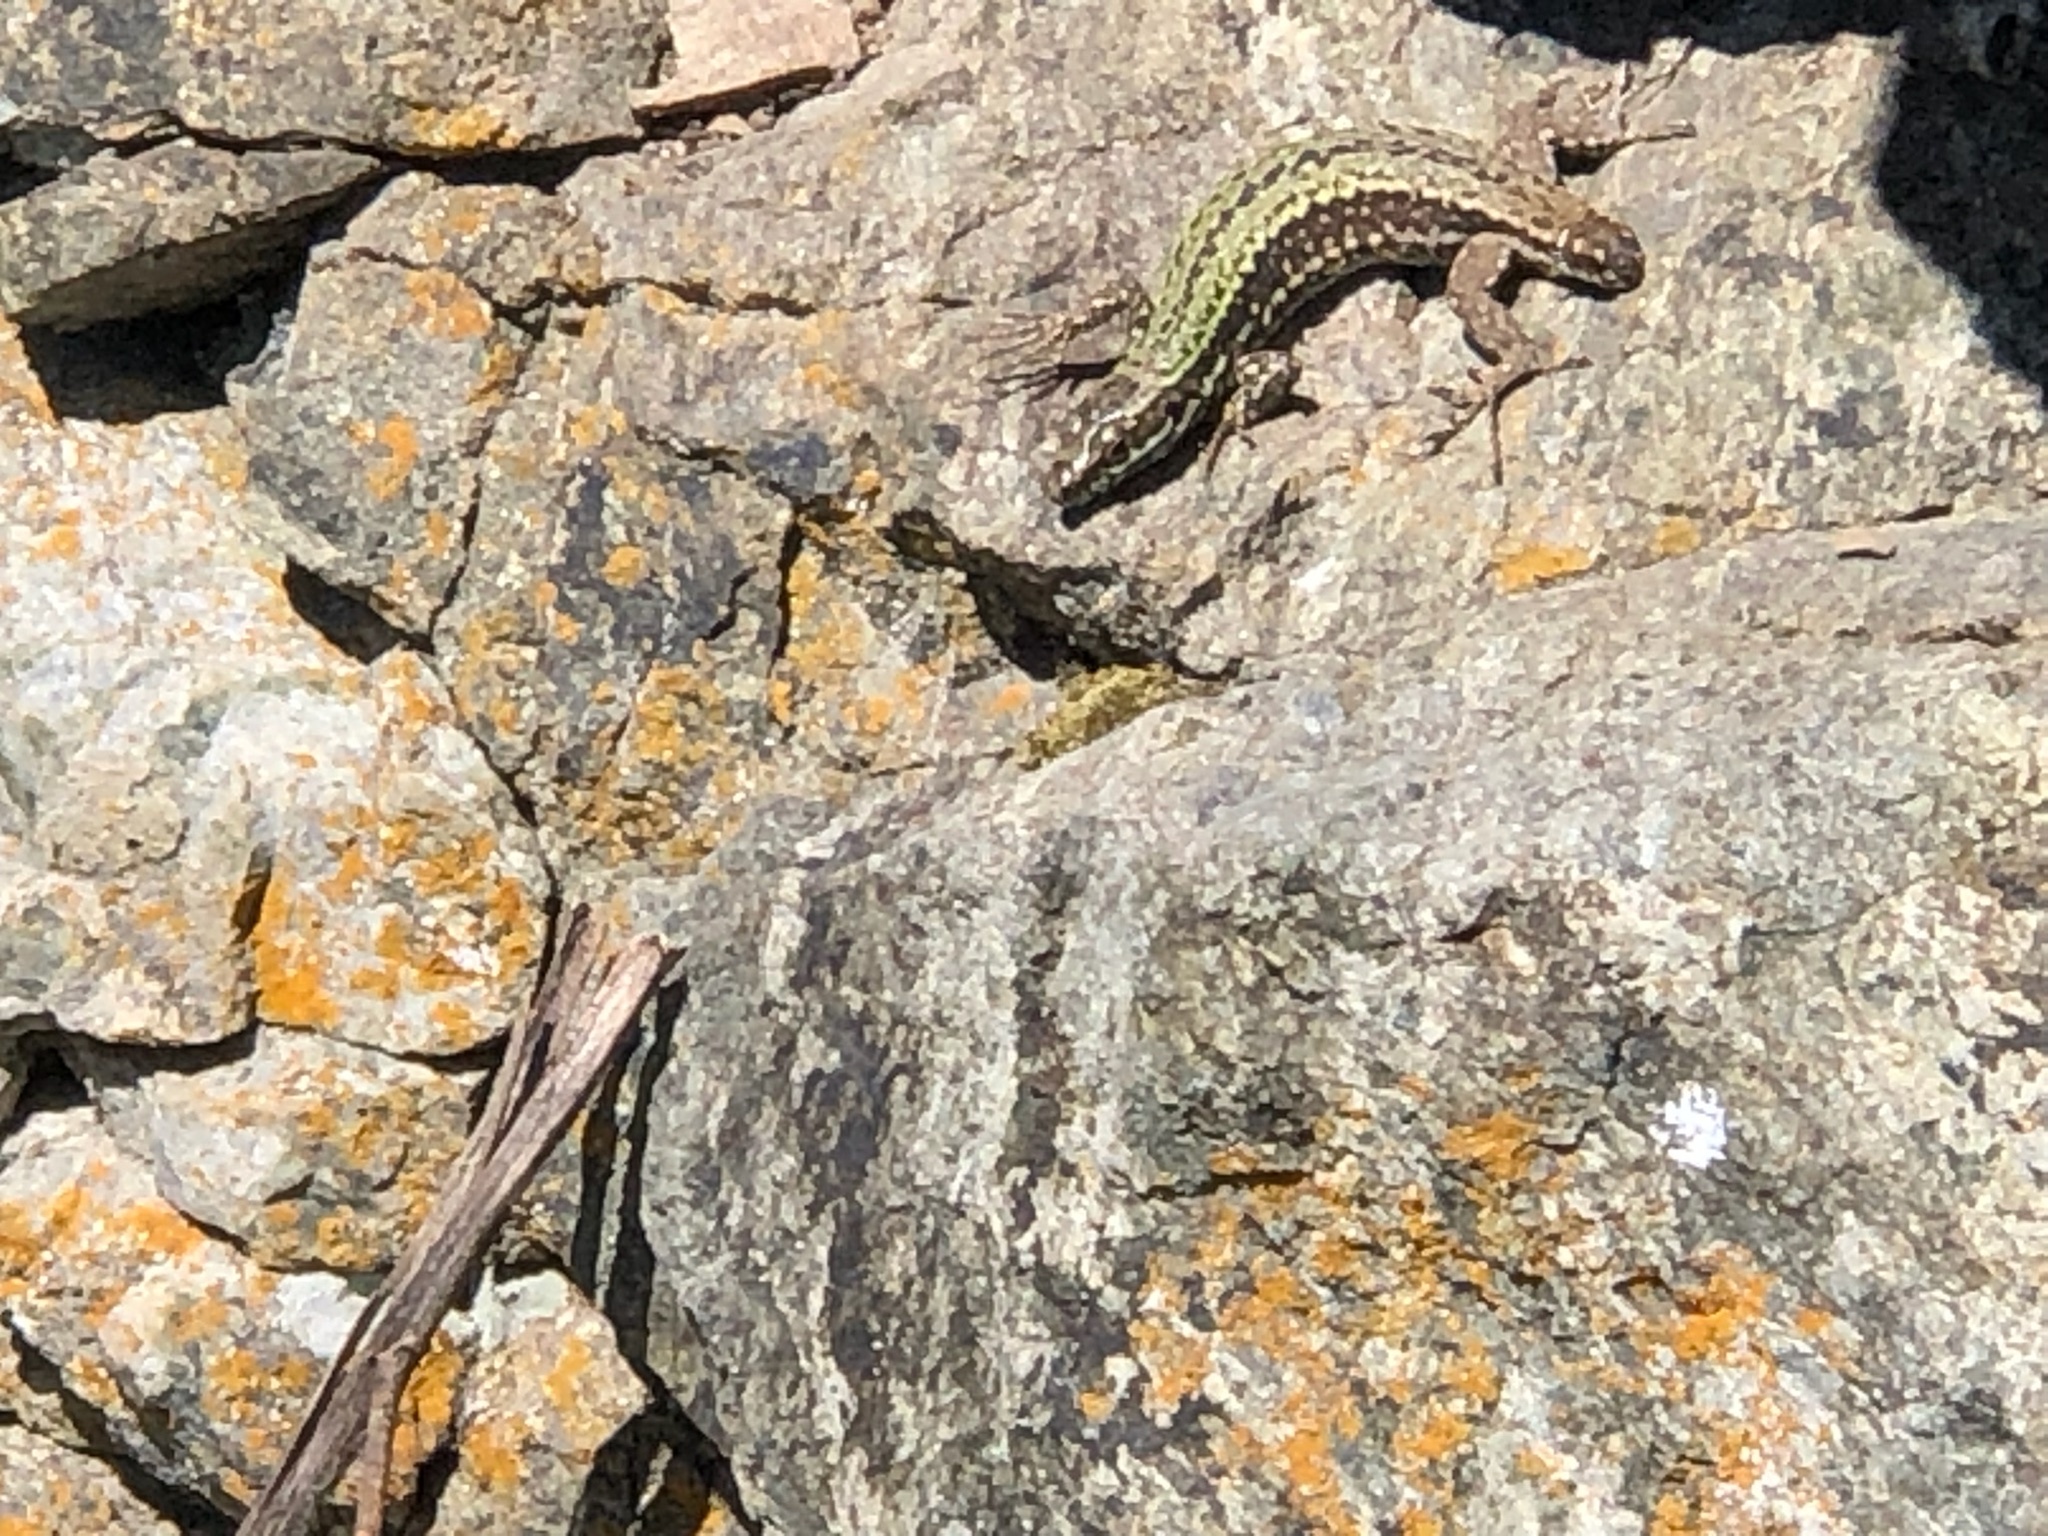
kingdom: Animalia
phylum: Chordata
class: Squamata
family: Lacertidae
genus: Podarcis
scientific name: Podarcis muralis
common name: Common wall lizard
